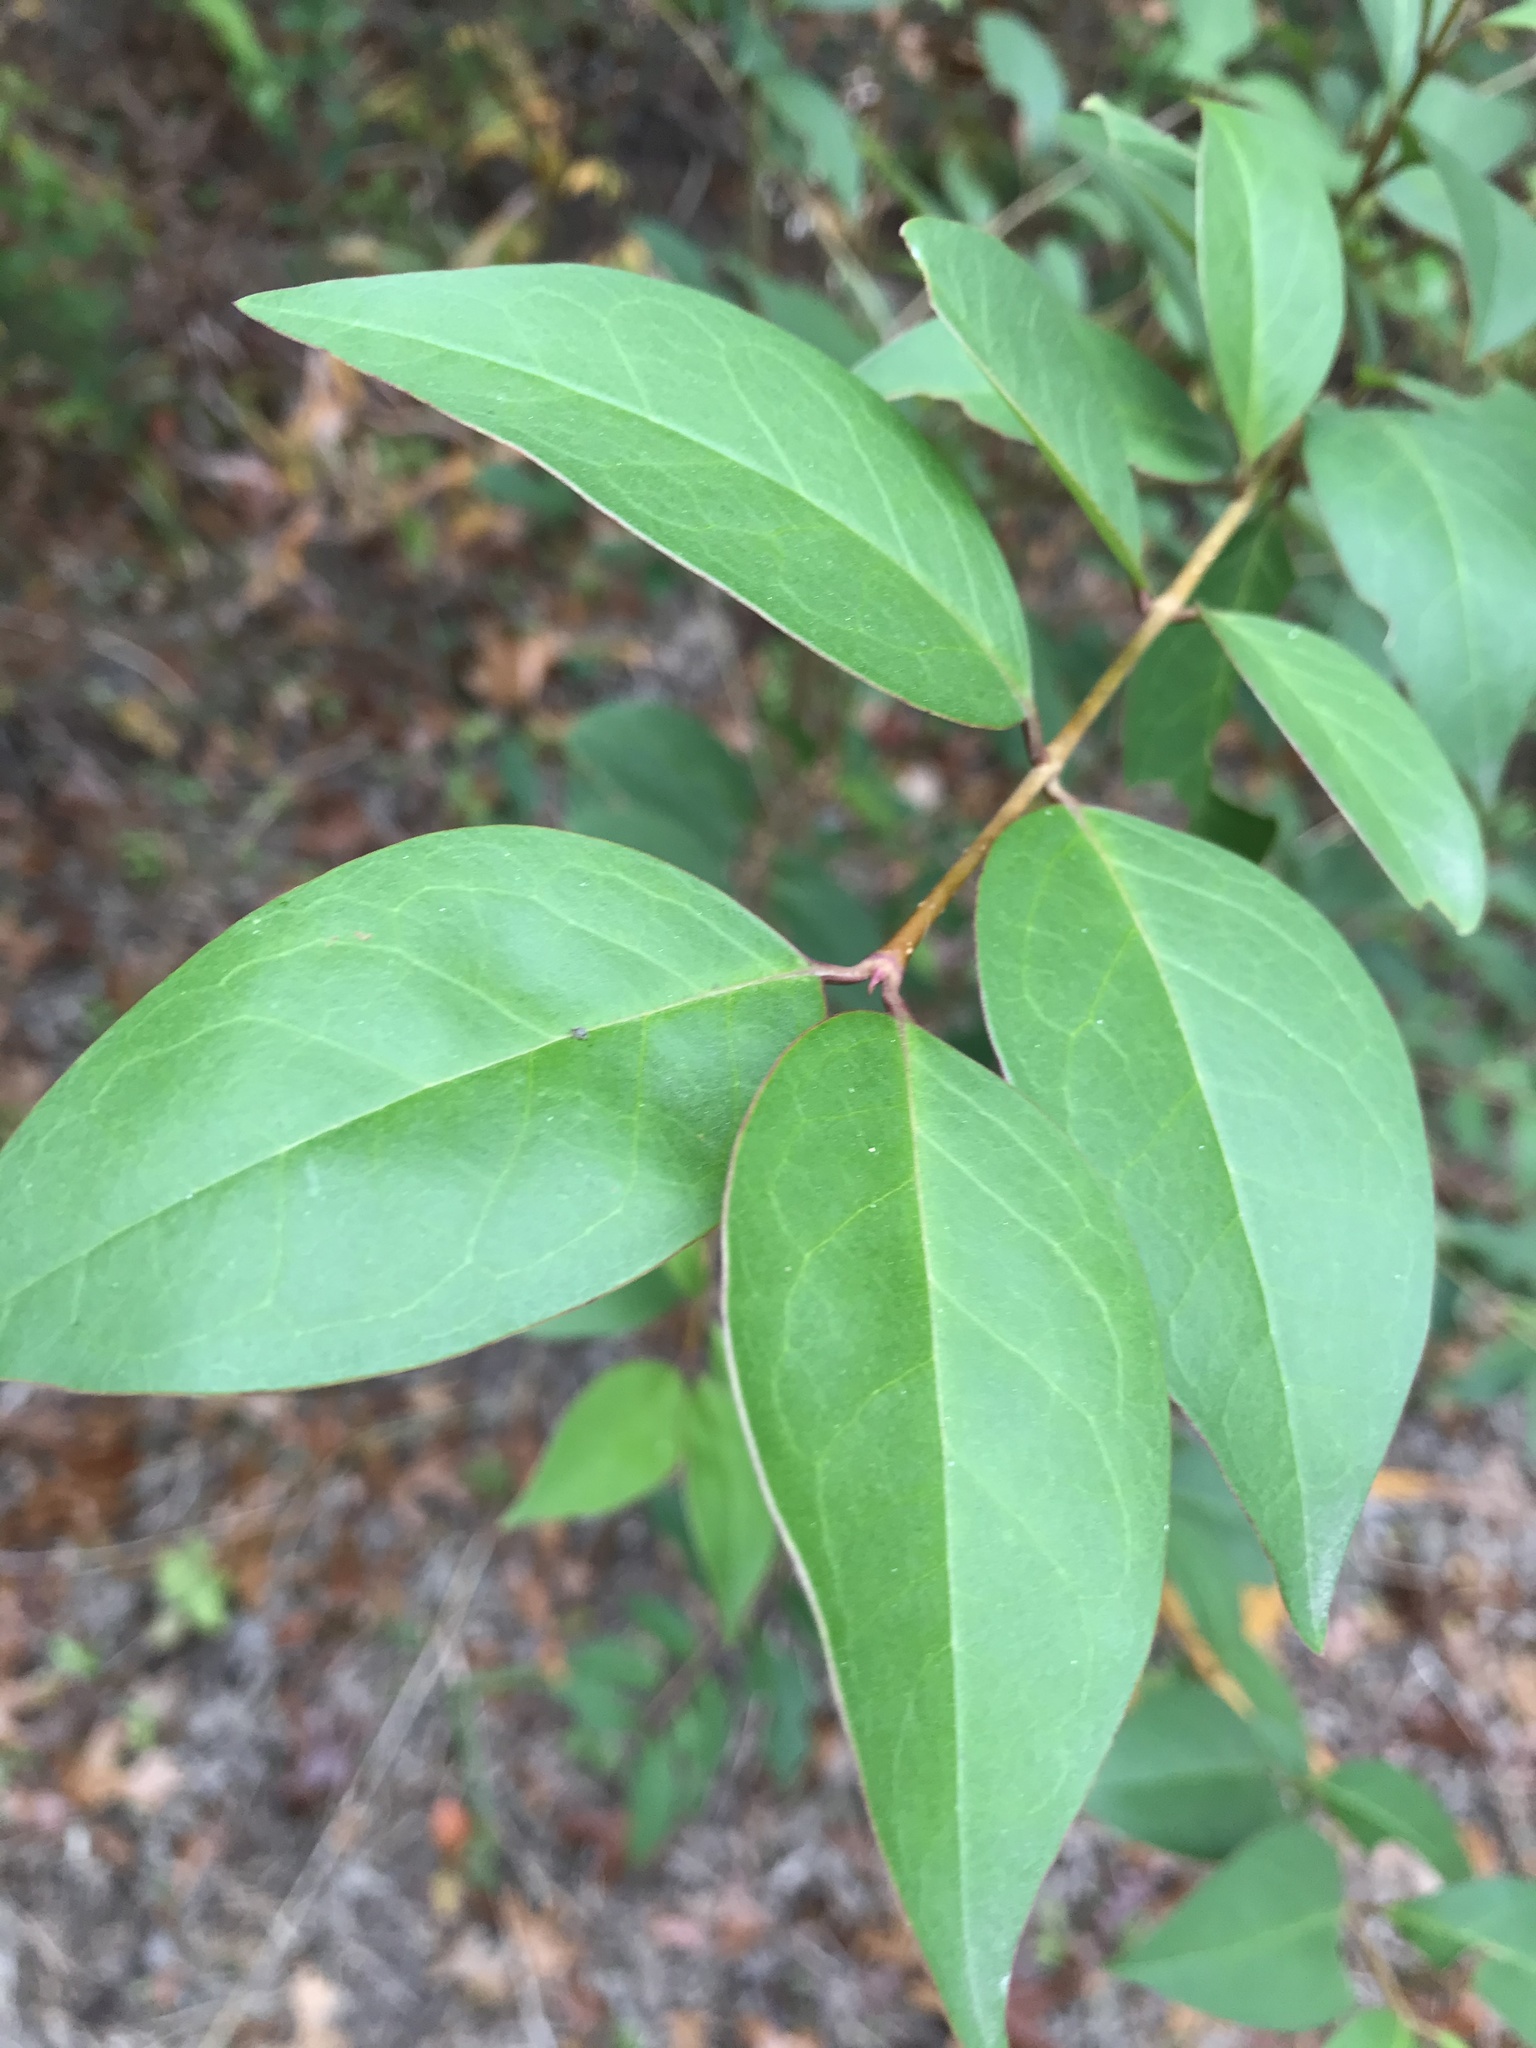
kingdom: Plantae
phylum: Tracheophyta
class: Magnoliopsida
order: Lamiales
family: Oleaceae
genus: Ligustrum
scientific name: Ligustrum lucidum
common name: Glossy privet
